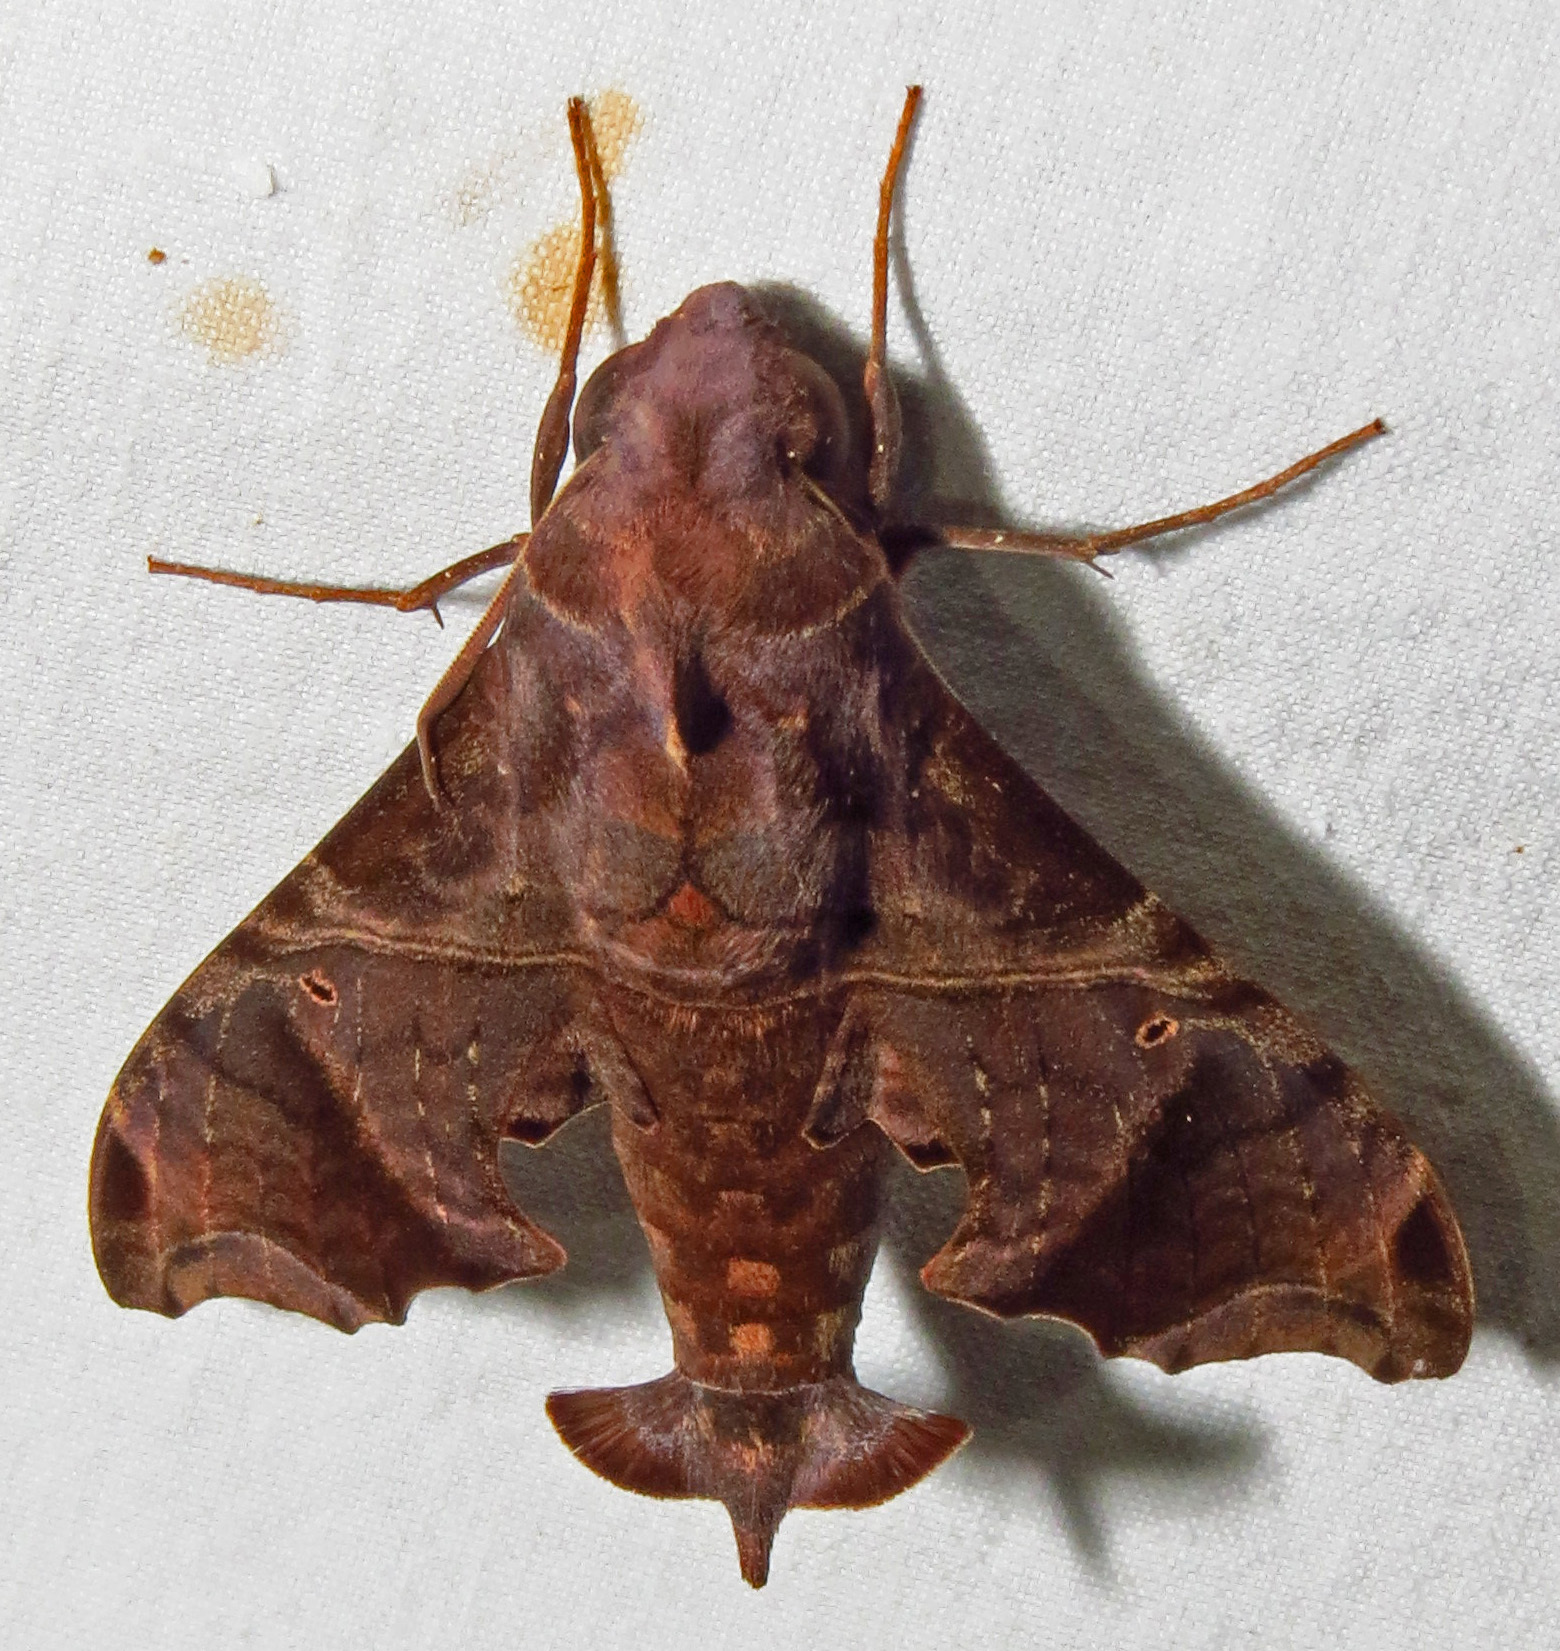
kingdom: Animalia
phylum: Arthropoda
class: Insecta
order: Lepidoptera
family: Sphingidae
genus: Enyo
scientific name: Enyo lugubris
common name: Mournful sphinx
